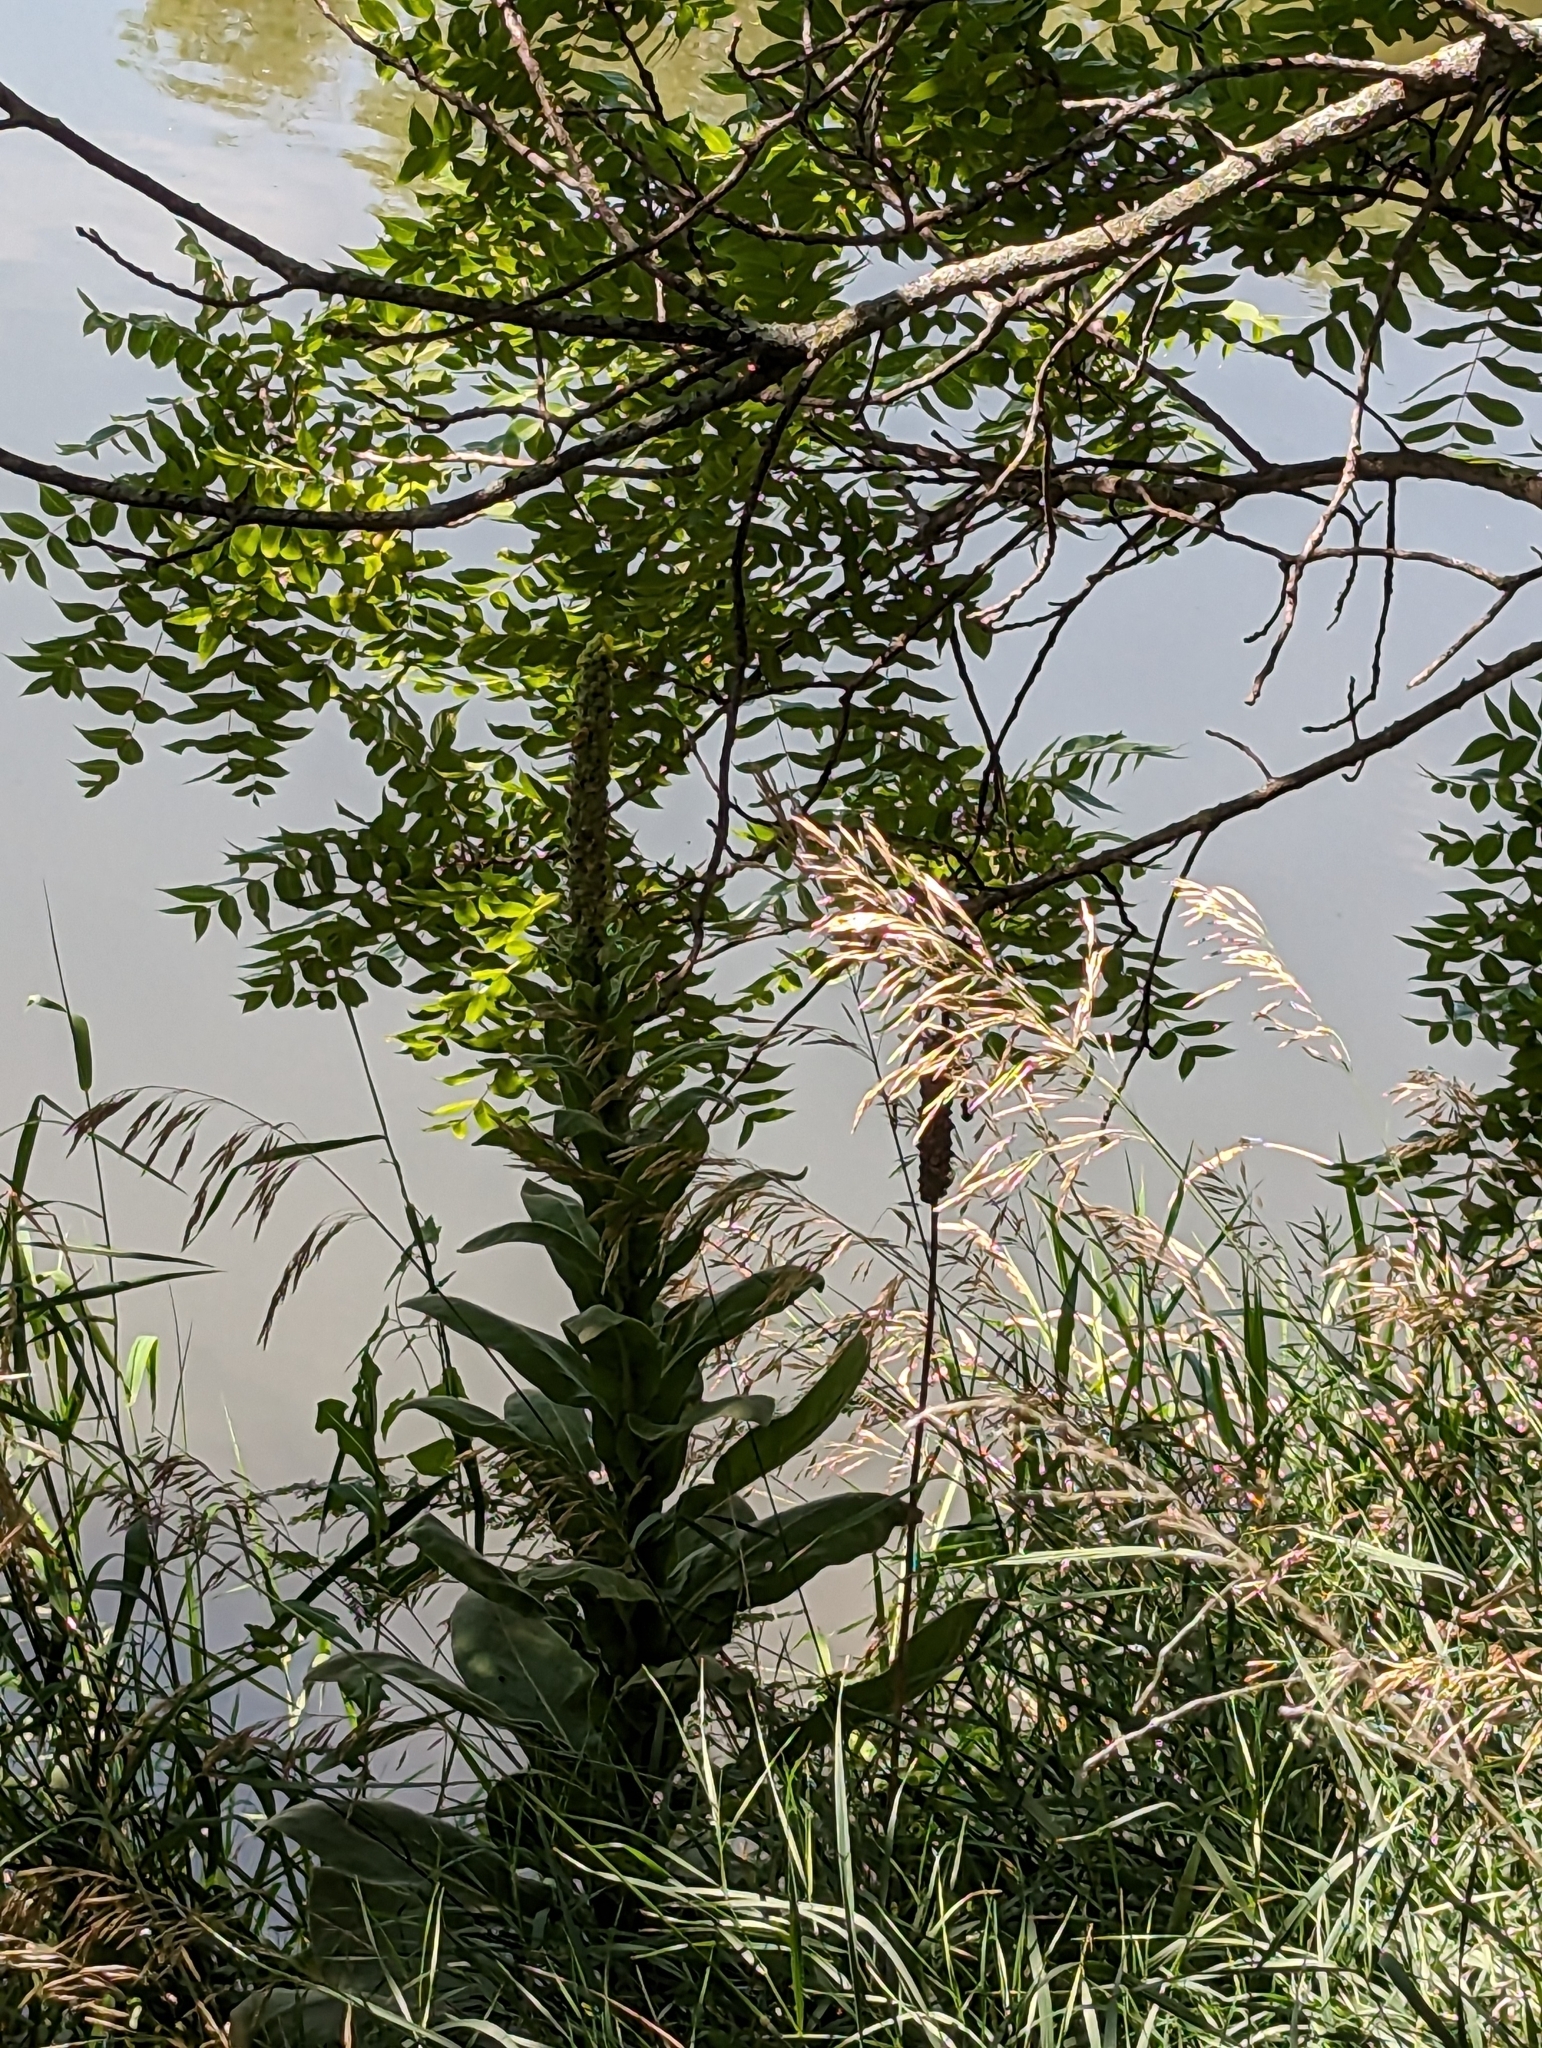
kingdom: Plantae
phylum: Tracheophyta
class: Magnoliopsida
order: Lamiales
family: Scrophulariaceae
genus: Verbascum
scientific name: Verbascum thapsus
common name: Common mullein
